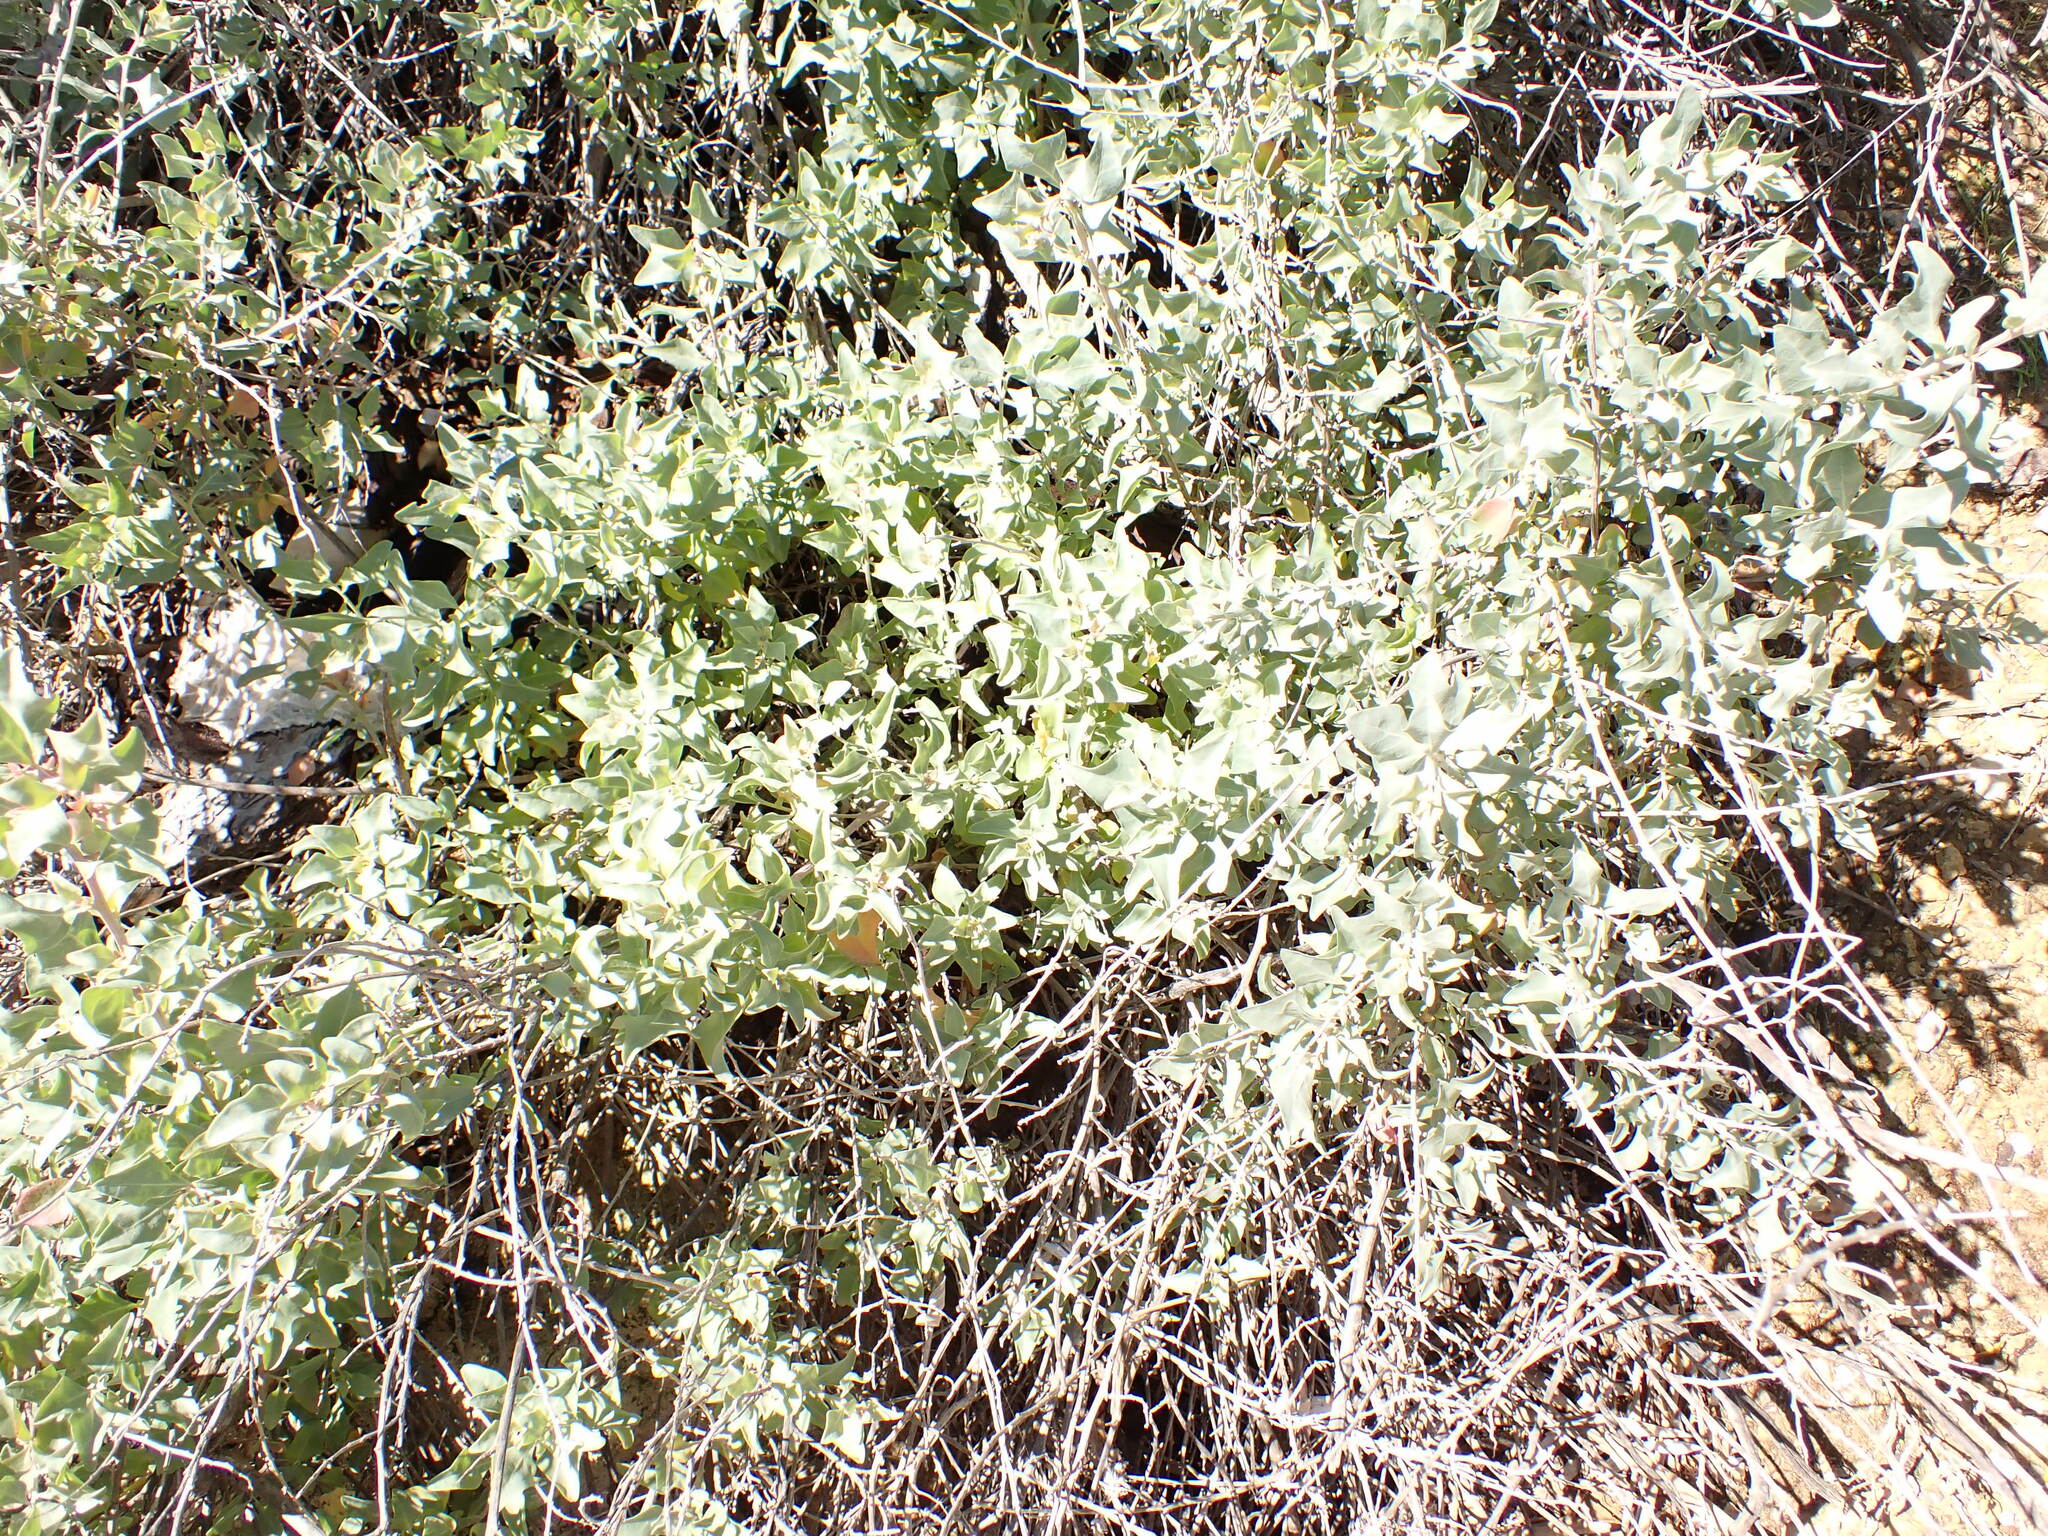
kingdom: Plantae
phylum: Tracheophyta
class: Magnoliopsida
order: Caryophyllales
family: Amaranthaceae
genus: Atriplex
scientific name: Atriplex halimus
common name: Shrubby orache
